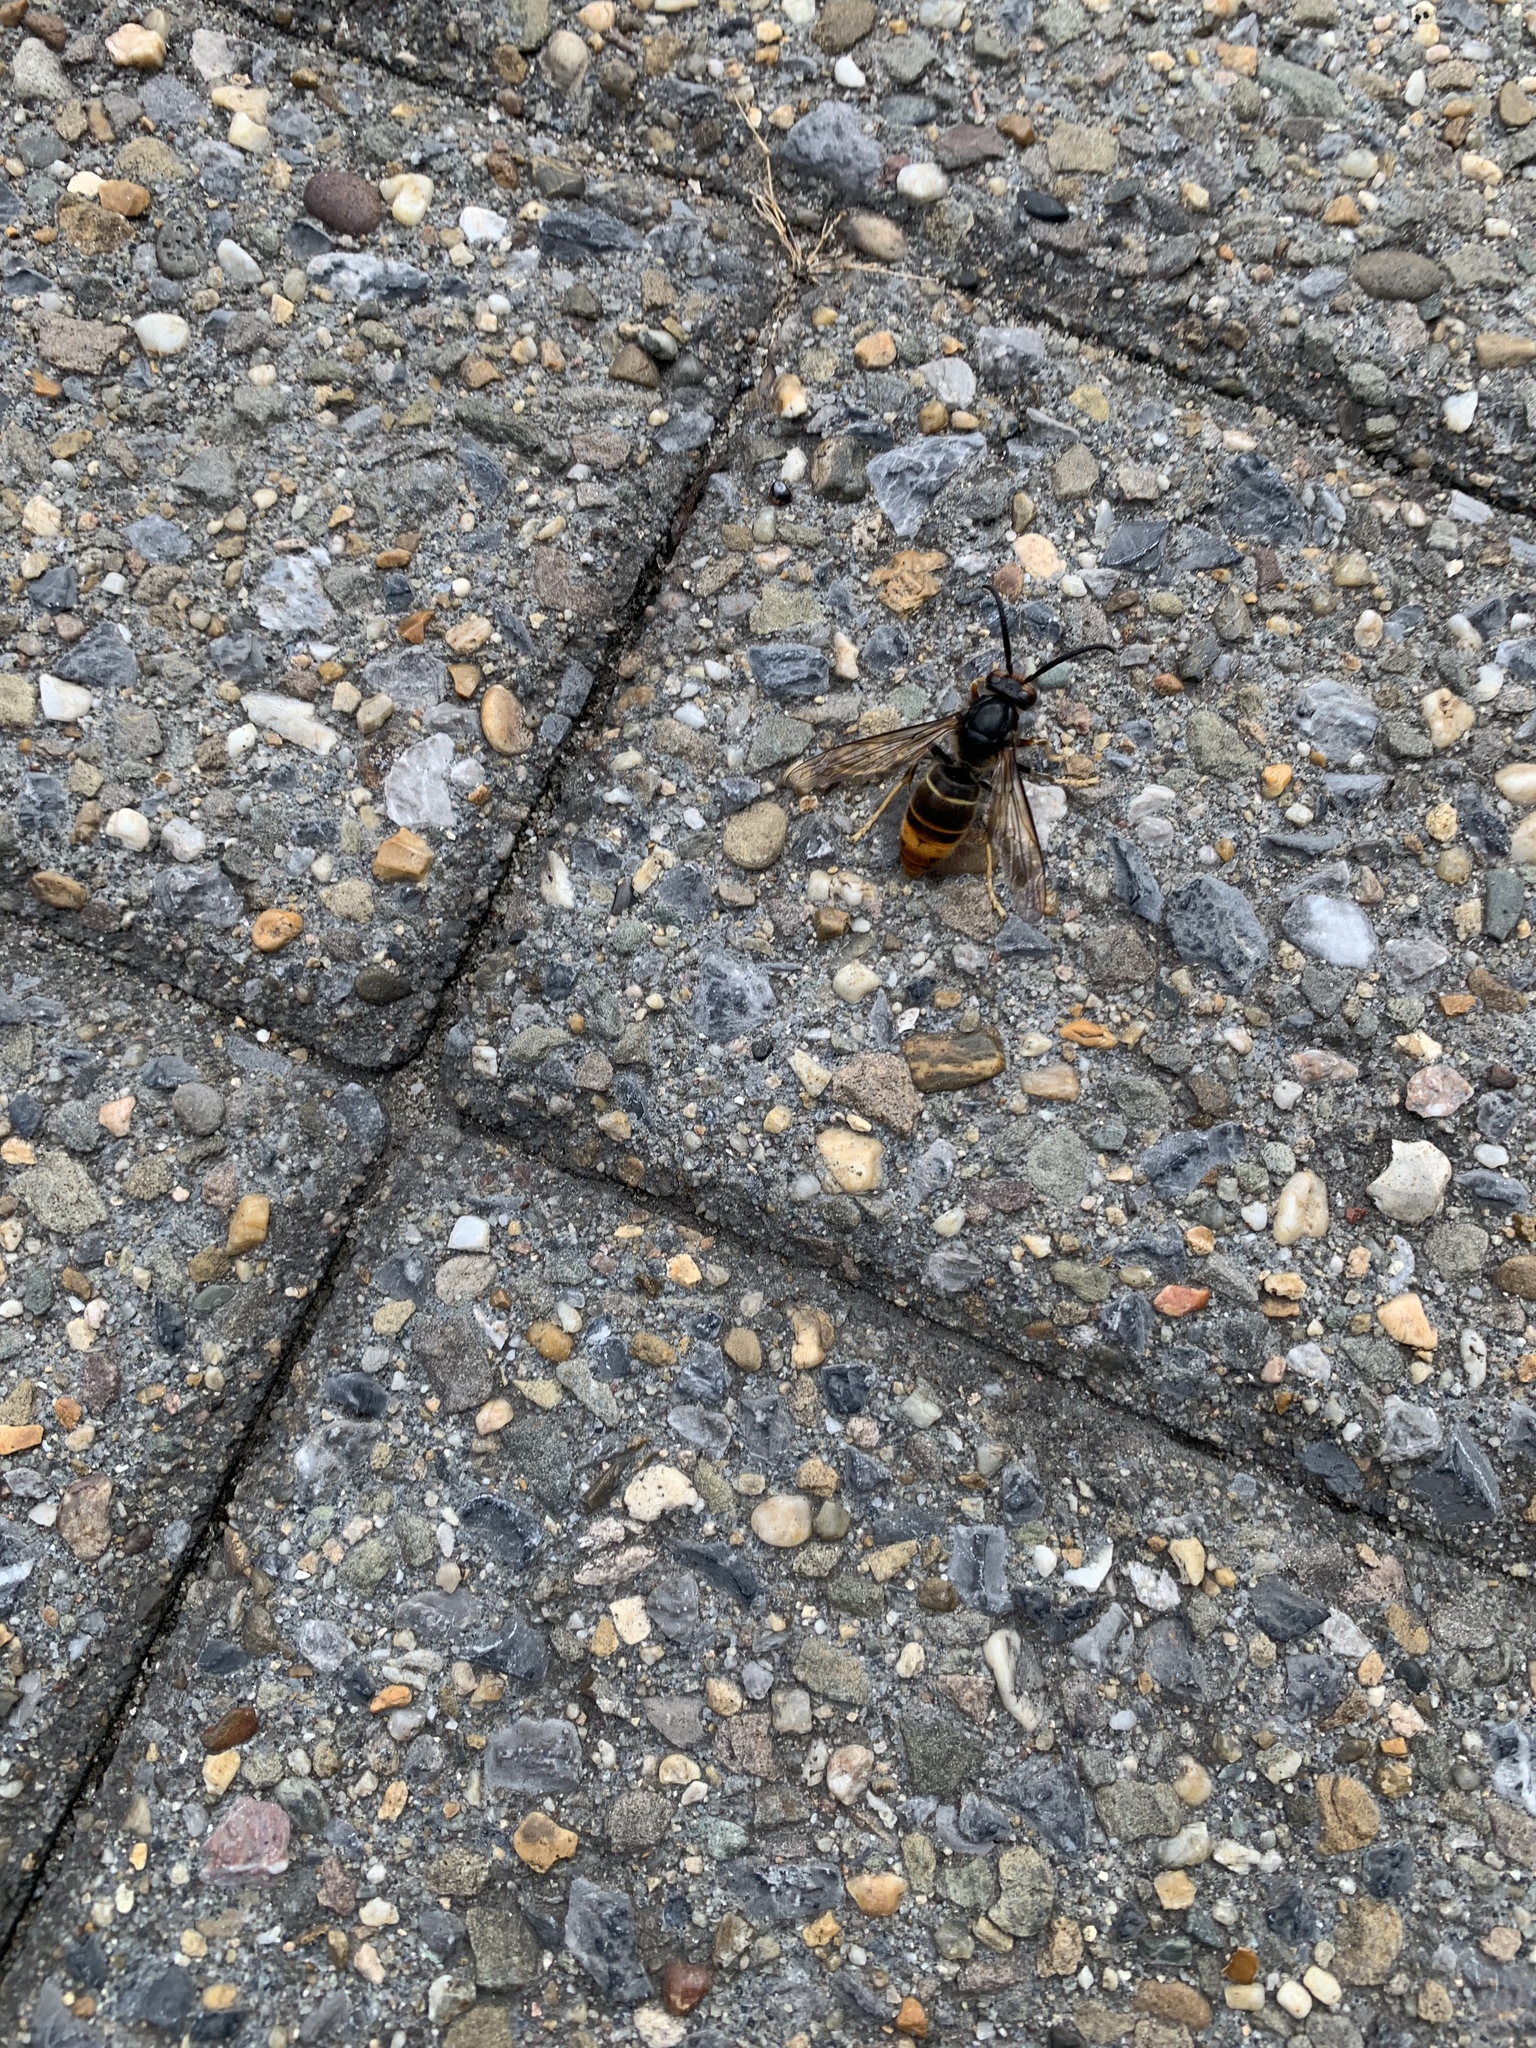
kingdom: Animalia
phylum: Arthropoda
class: Insecta
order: Hymenoptera
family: Vespidae
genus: Vespa
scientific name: Vespa velutina
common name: Asian hornet
